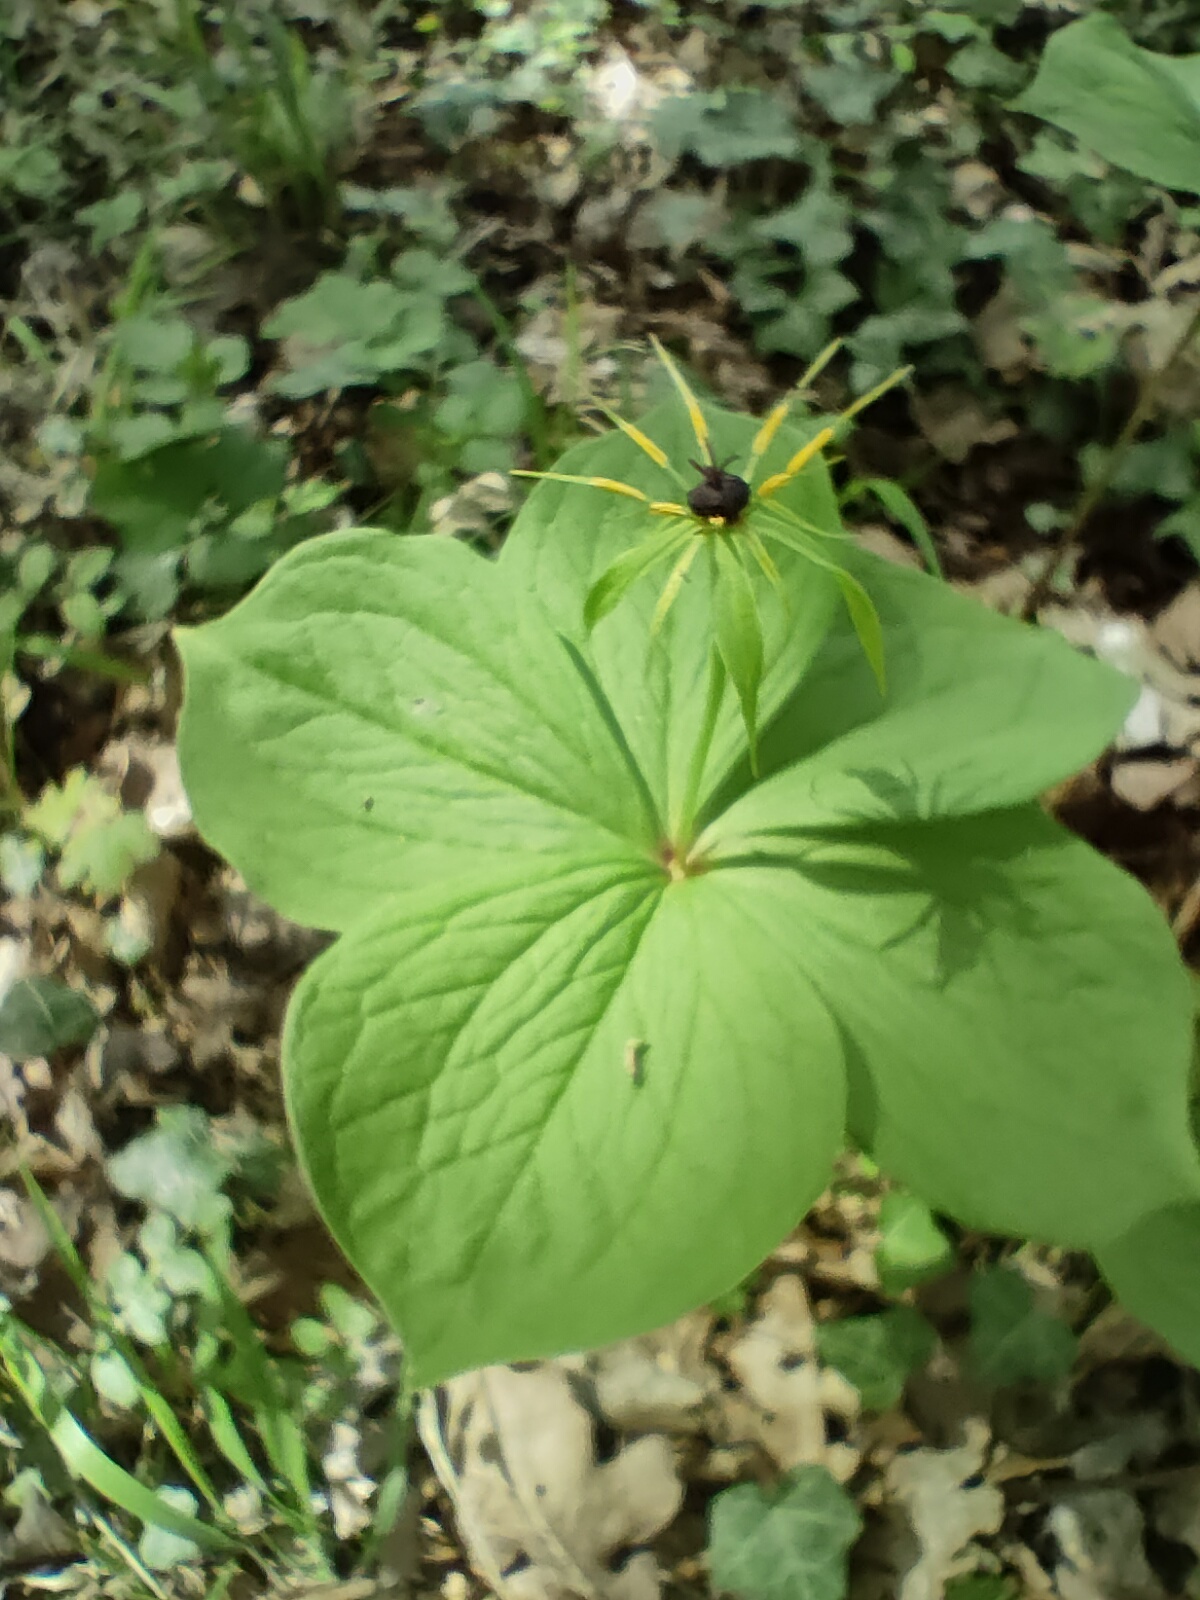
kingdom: Plantae
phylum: Tracheophyta
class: Liliopsida
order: Liliales
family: Melanthiaceae
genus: Paris
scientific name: Paris quadrifolia
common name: Herb-paris
